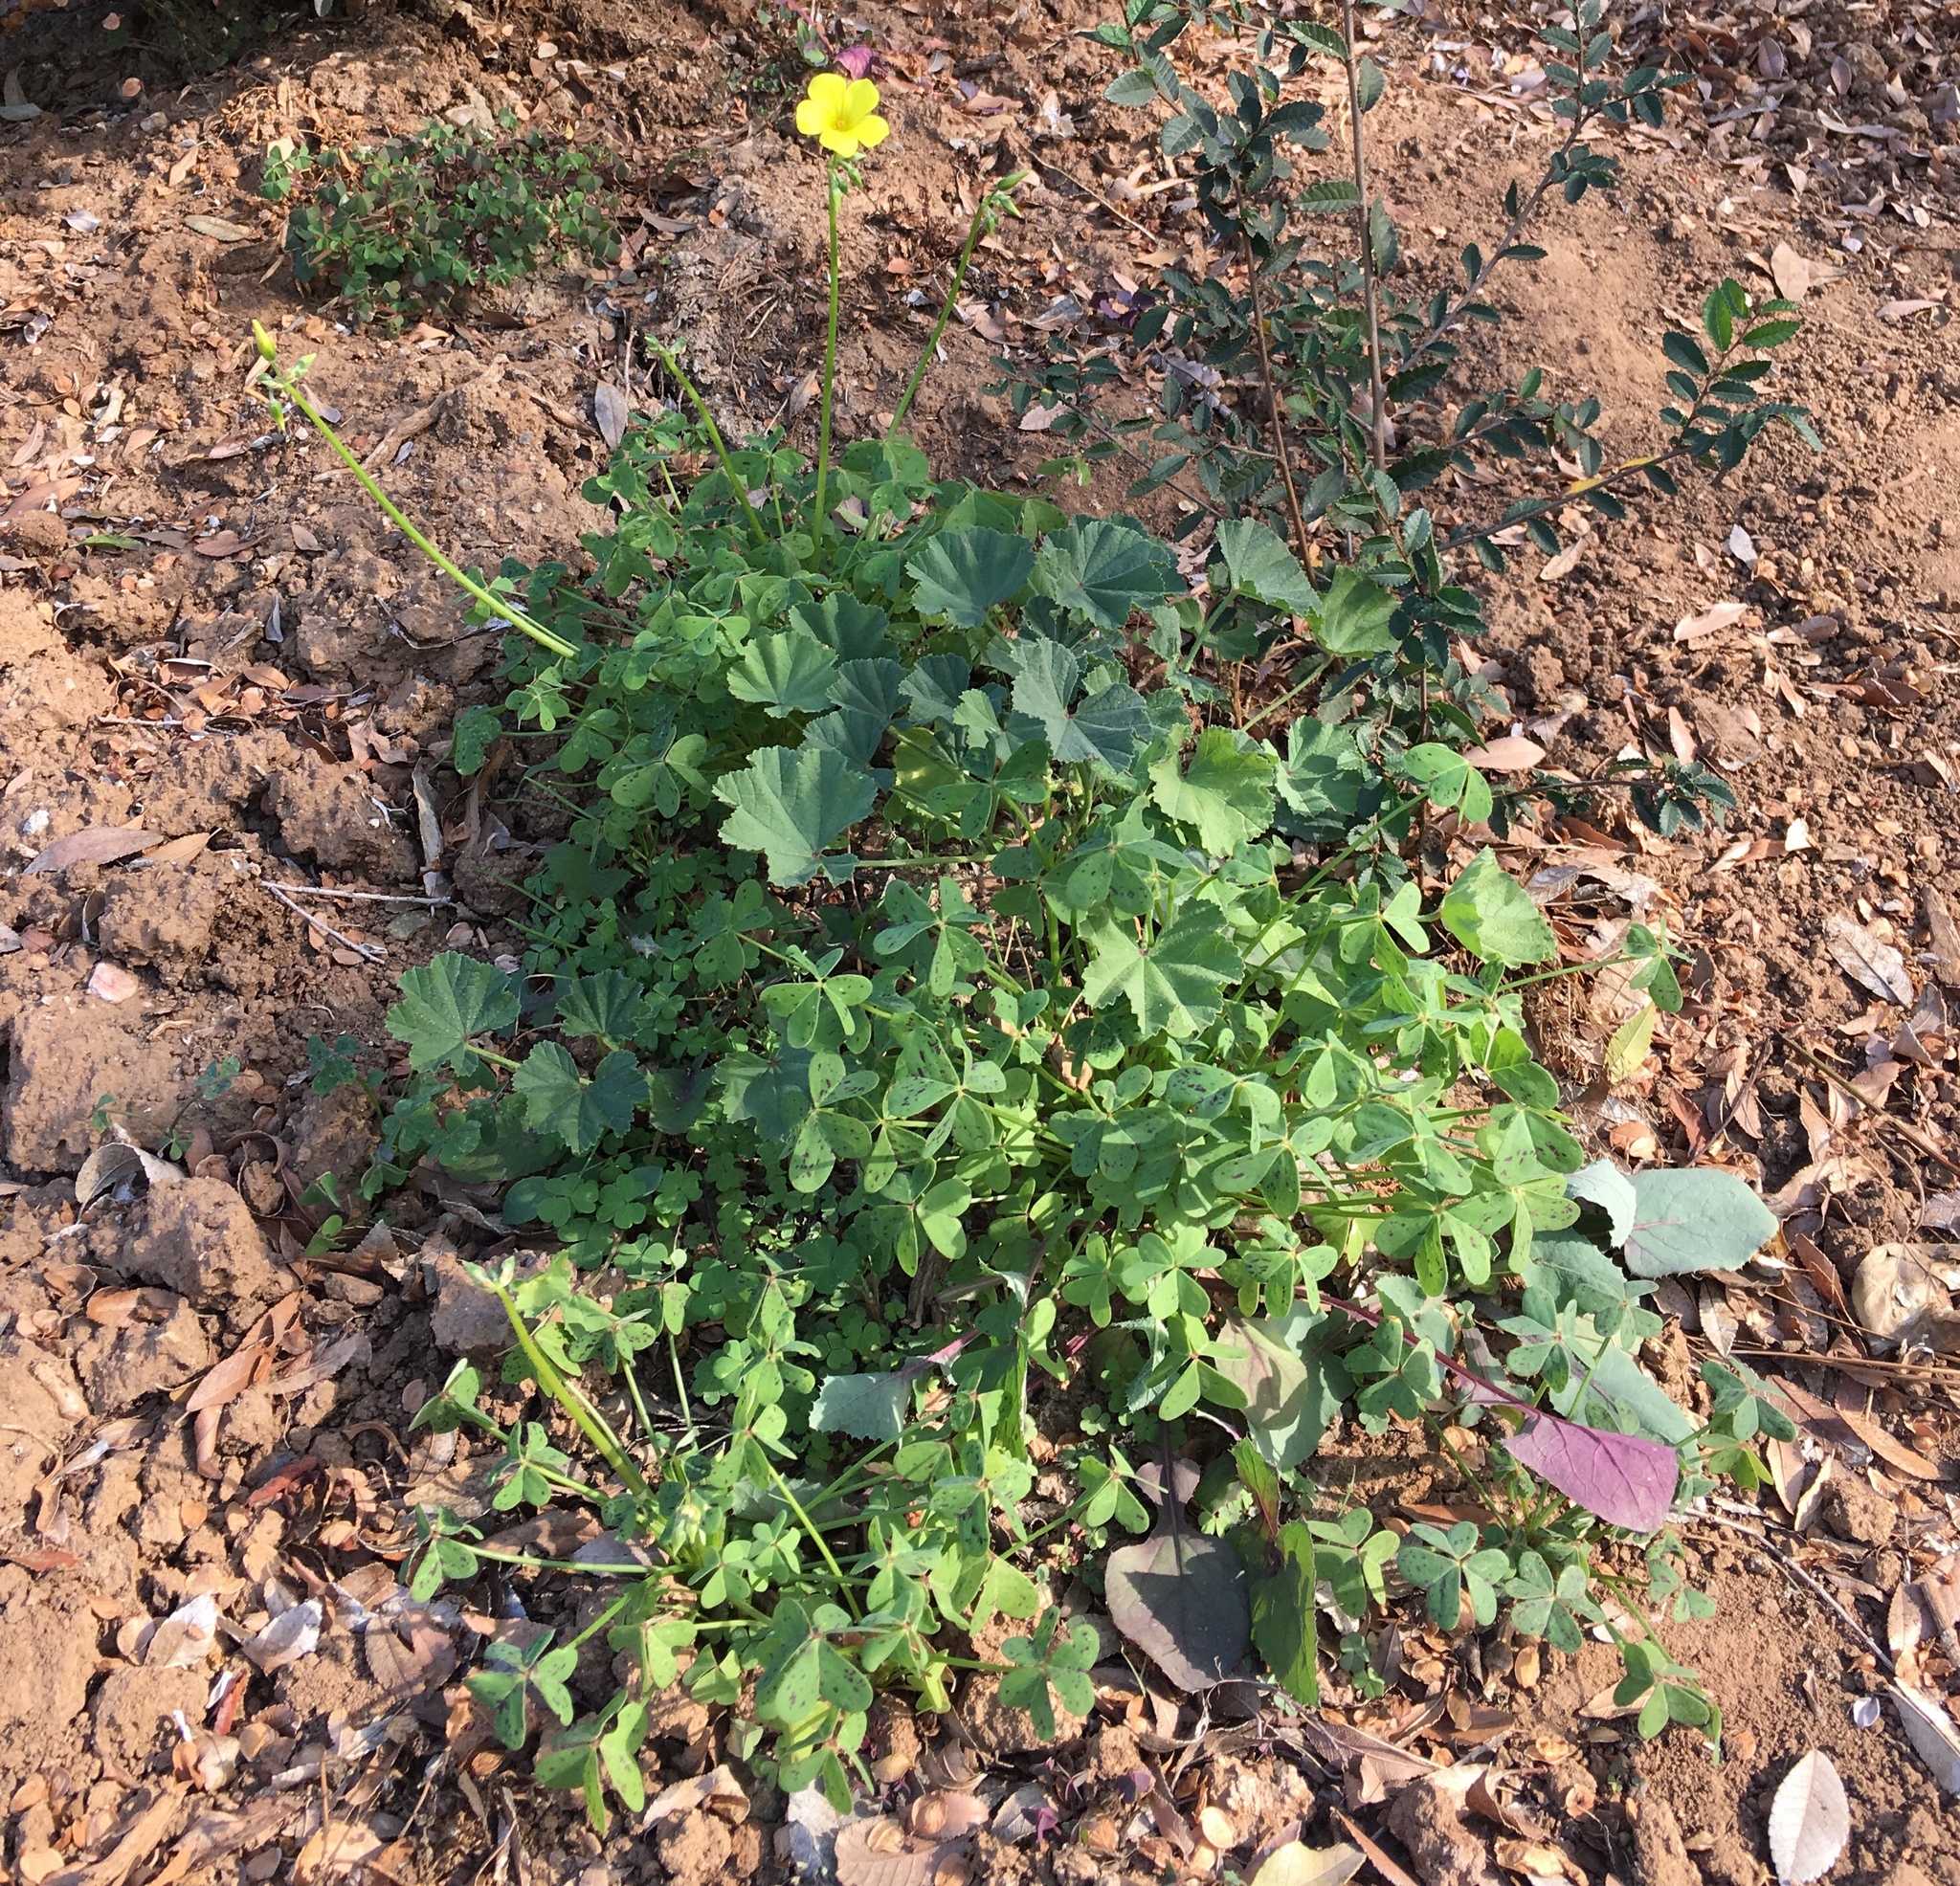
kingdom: Plantae
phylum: Tracheophyta
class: Magnoliopsida
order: Oxalidales
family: Oxalidaceae
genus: Oxalis
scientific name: Oxalis pes-caprae
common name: Bermuda-buttercup
